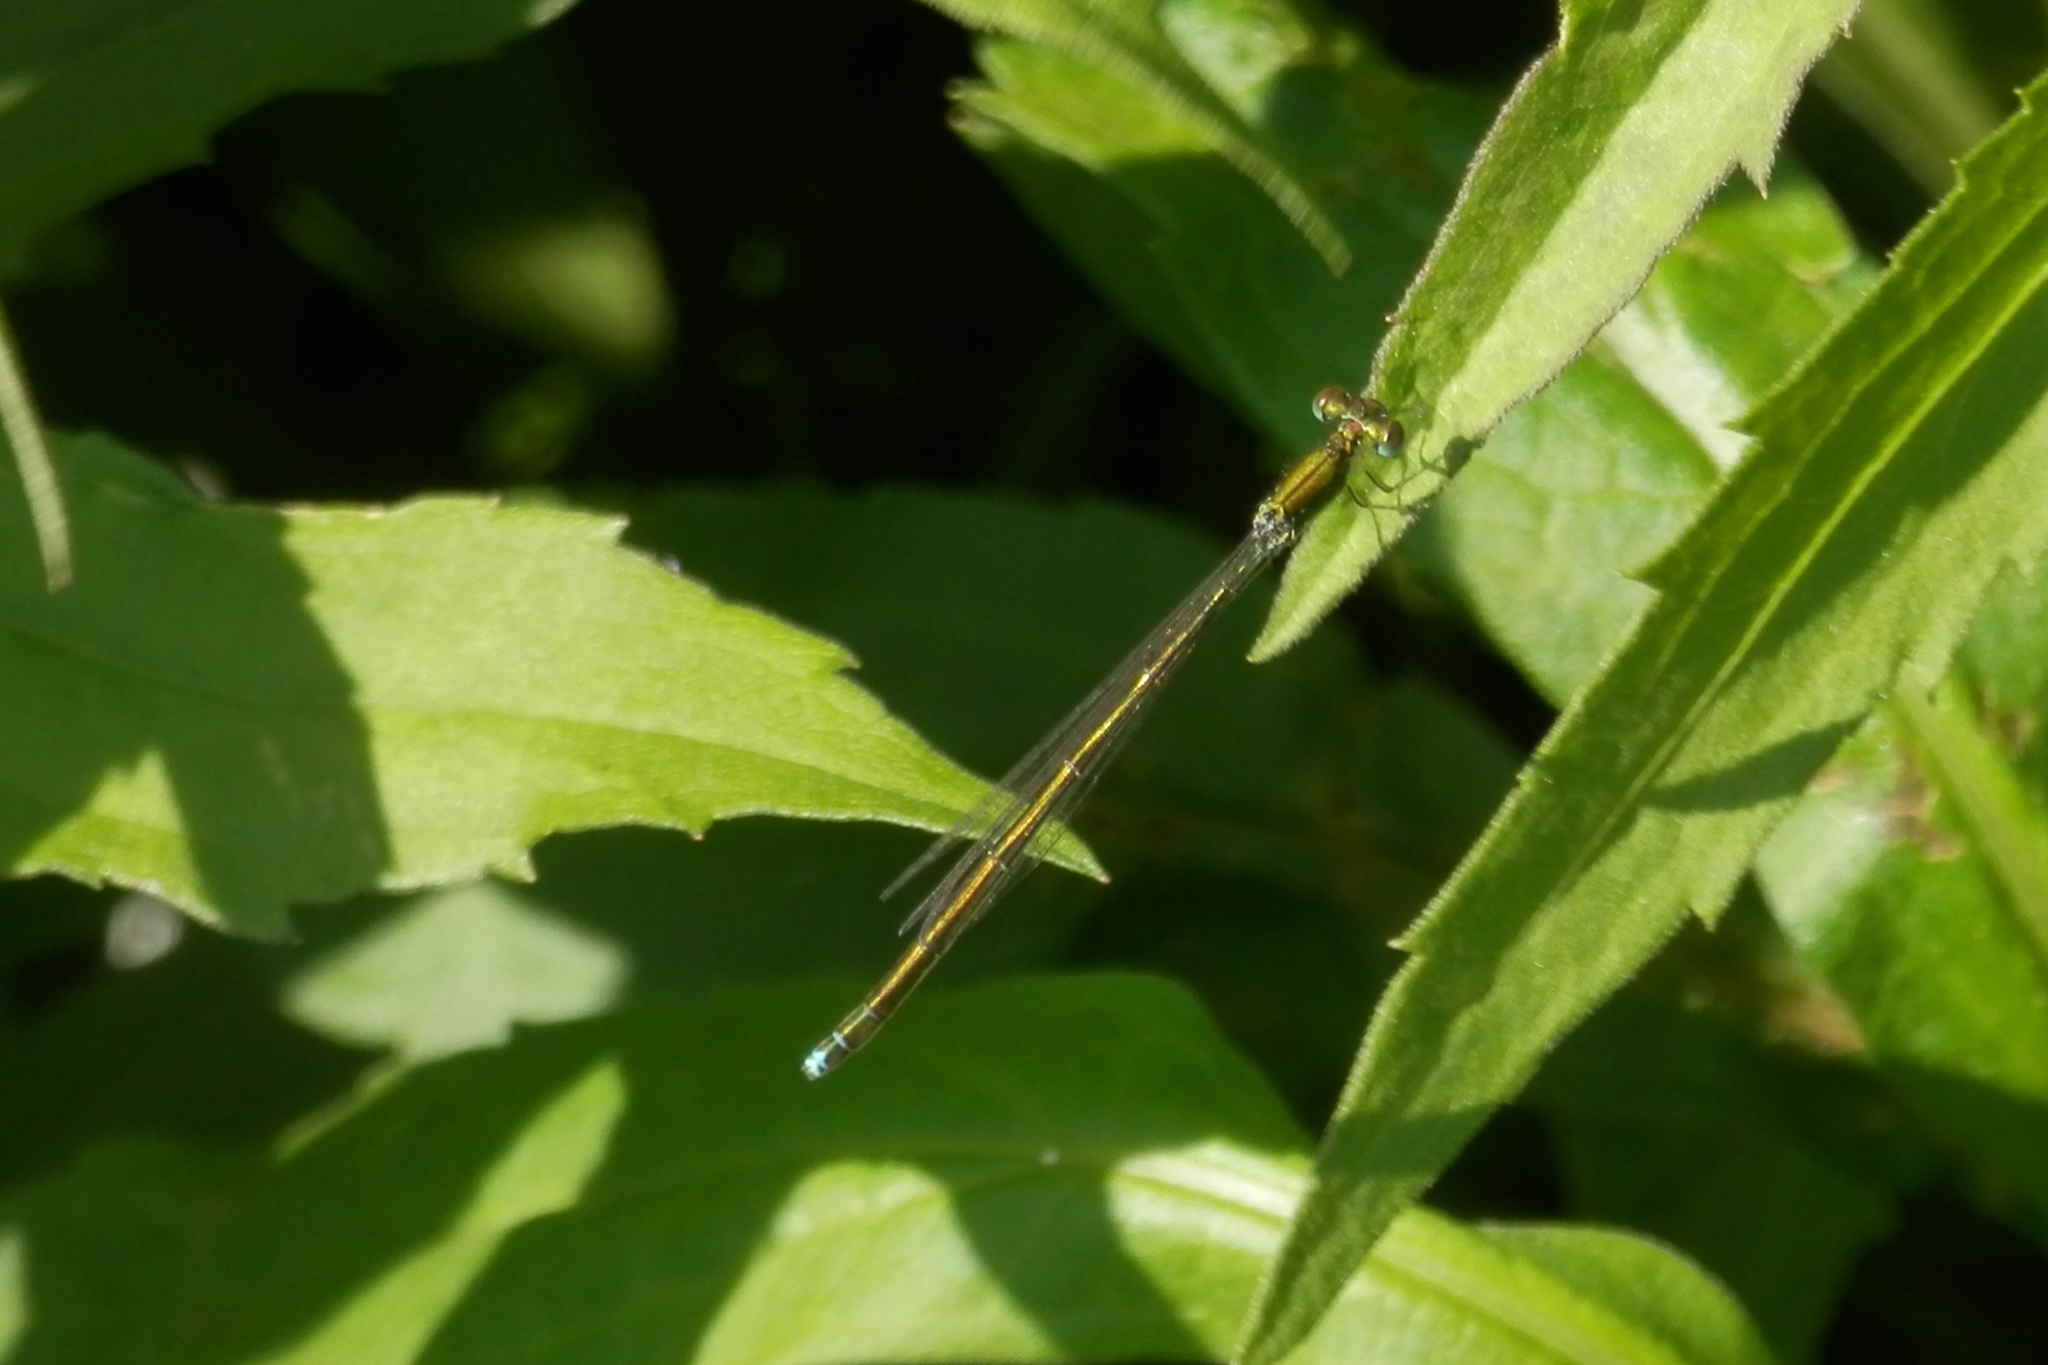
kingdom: Animalia
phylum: Arthropoda
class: Insecta
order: Odonata
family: Coenagrionidae
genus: Nehalennia
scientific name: Nehalennia irene
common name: Sedge sprite
